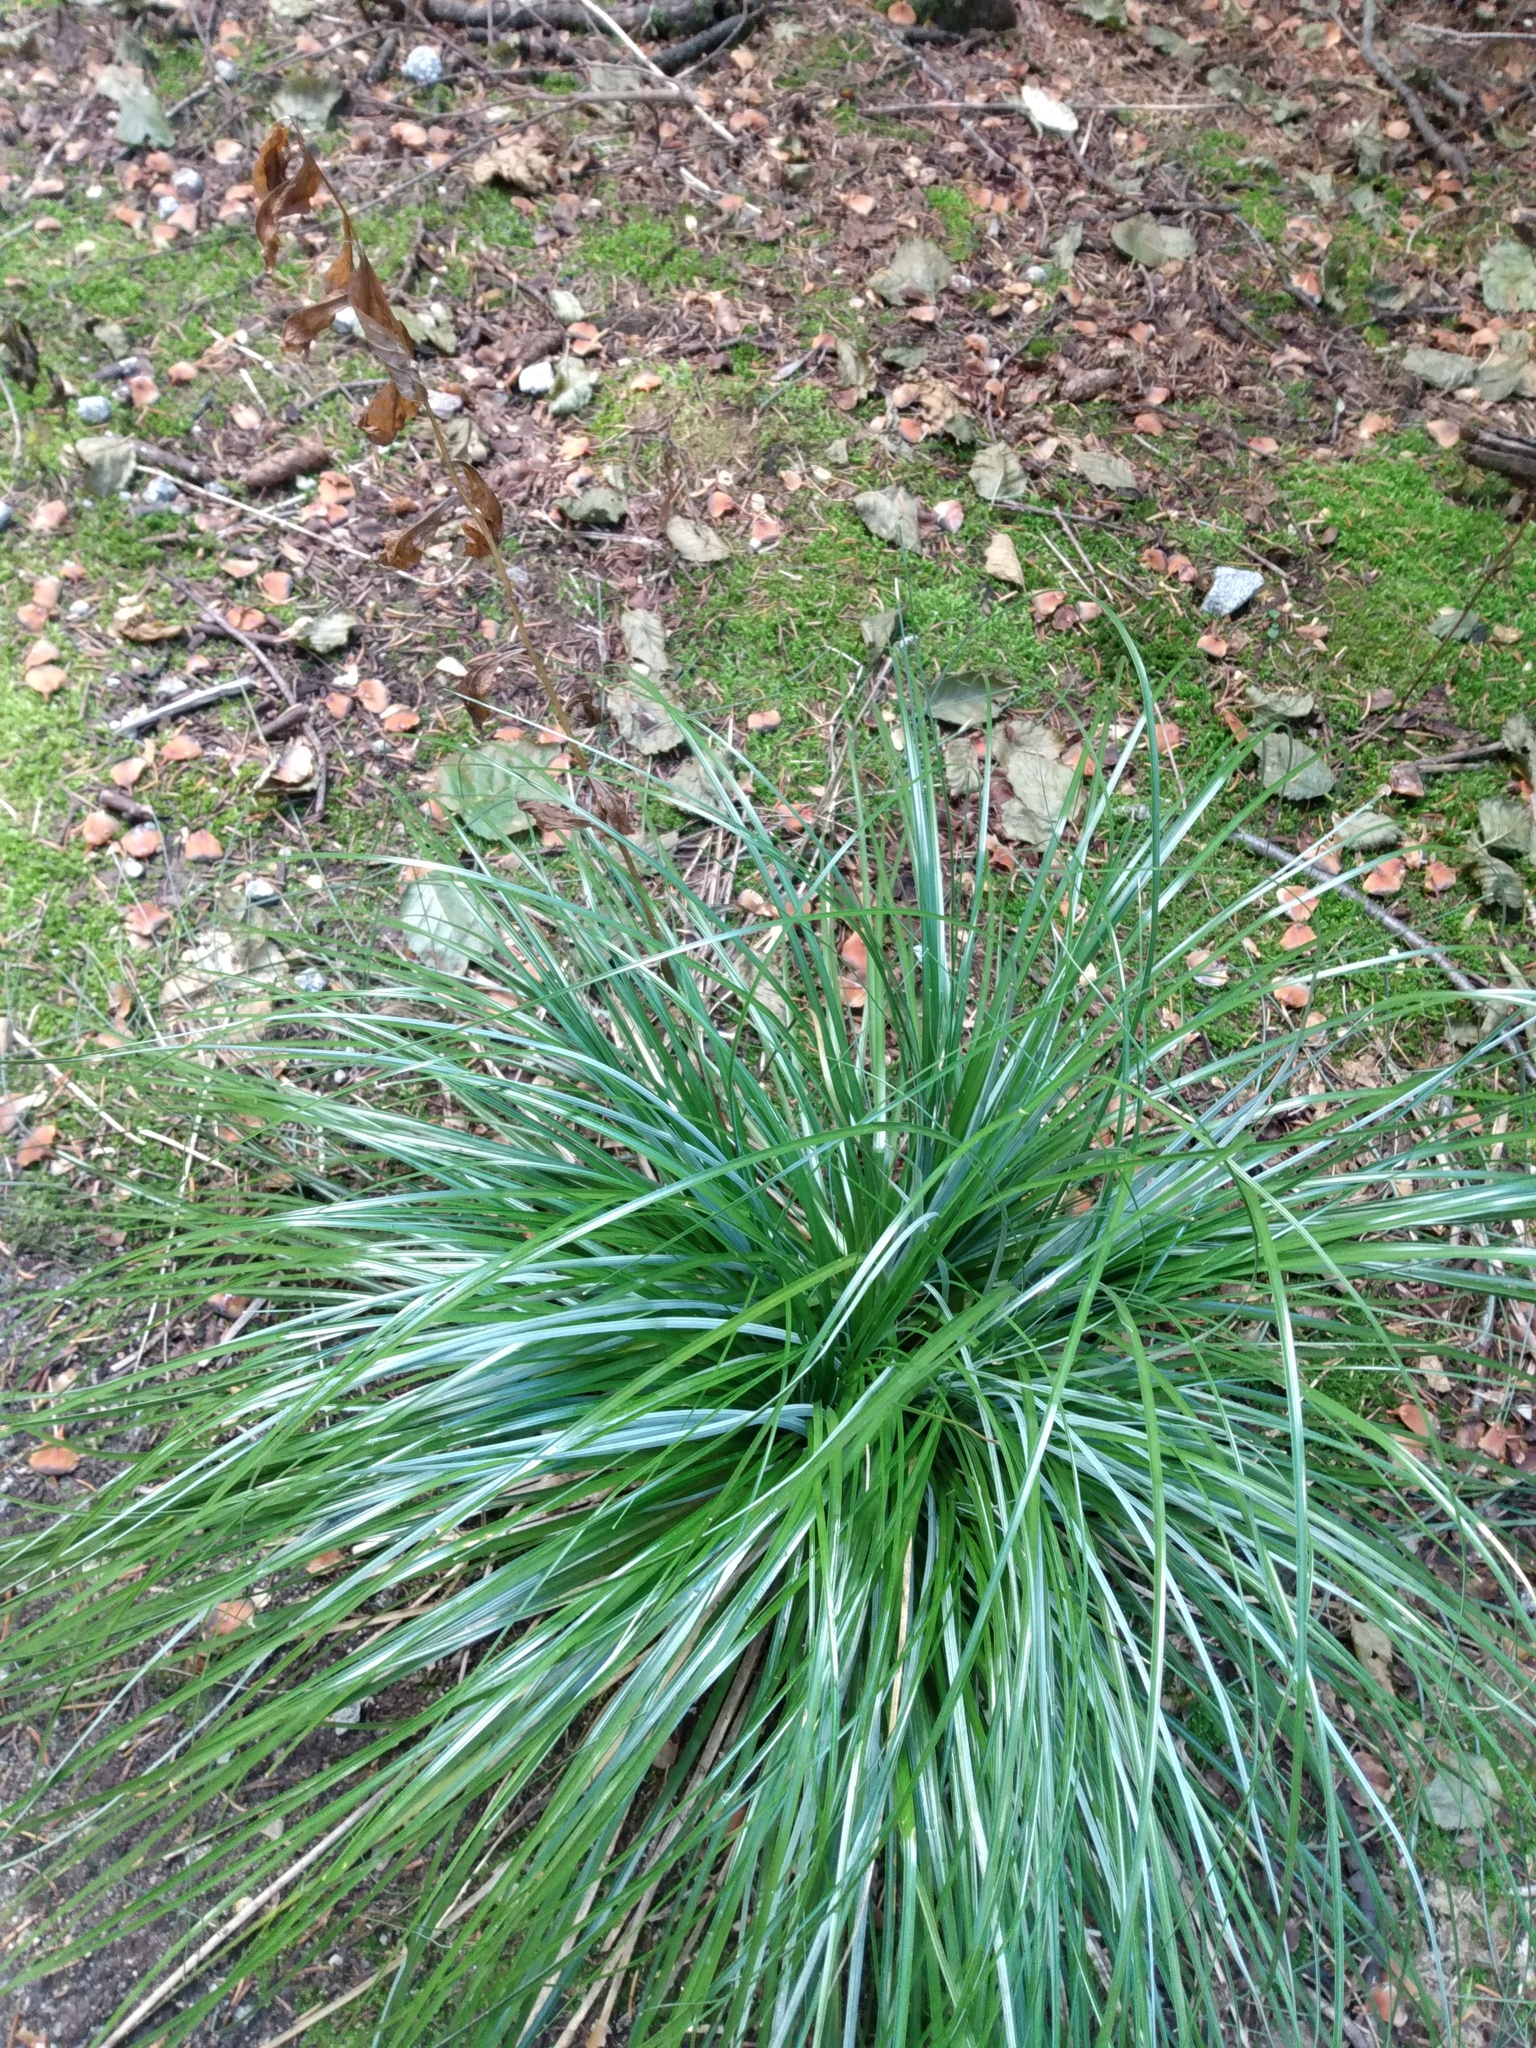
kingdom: Plantae
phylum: Tracheophyta
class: Liliopsida
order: Liliales
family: Melanthiaceae
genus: Xerophyllum
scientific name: Xerophyllum tenax
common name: Bear-grass
